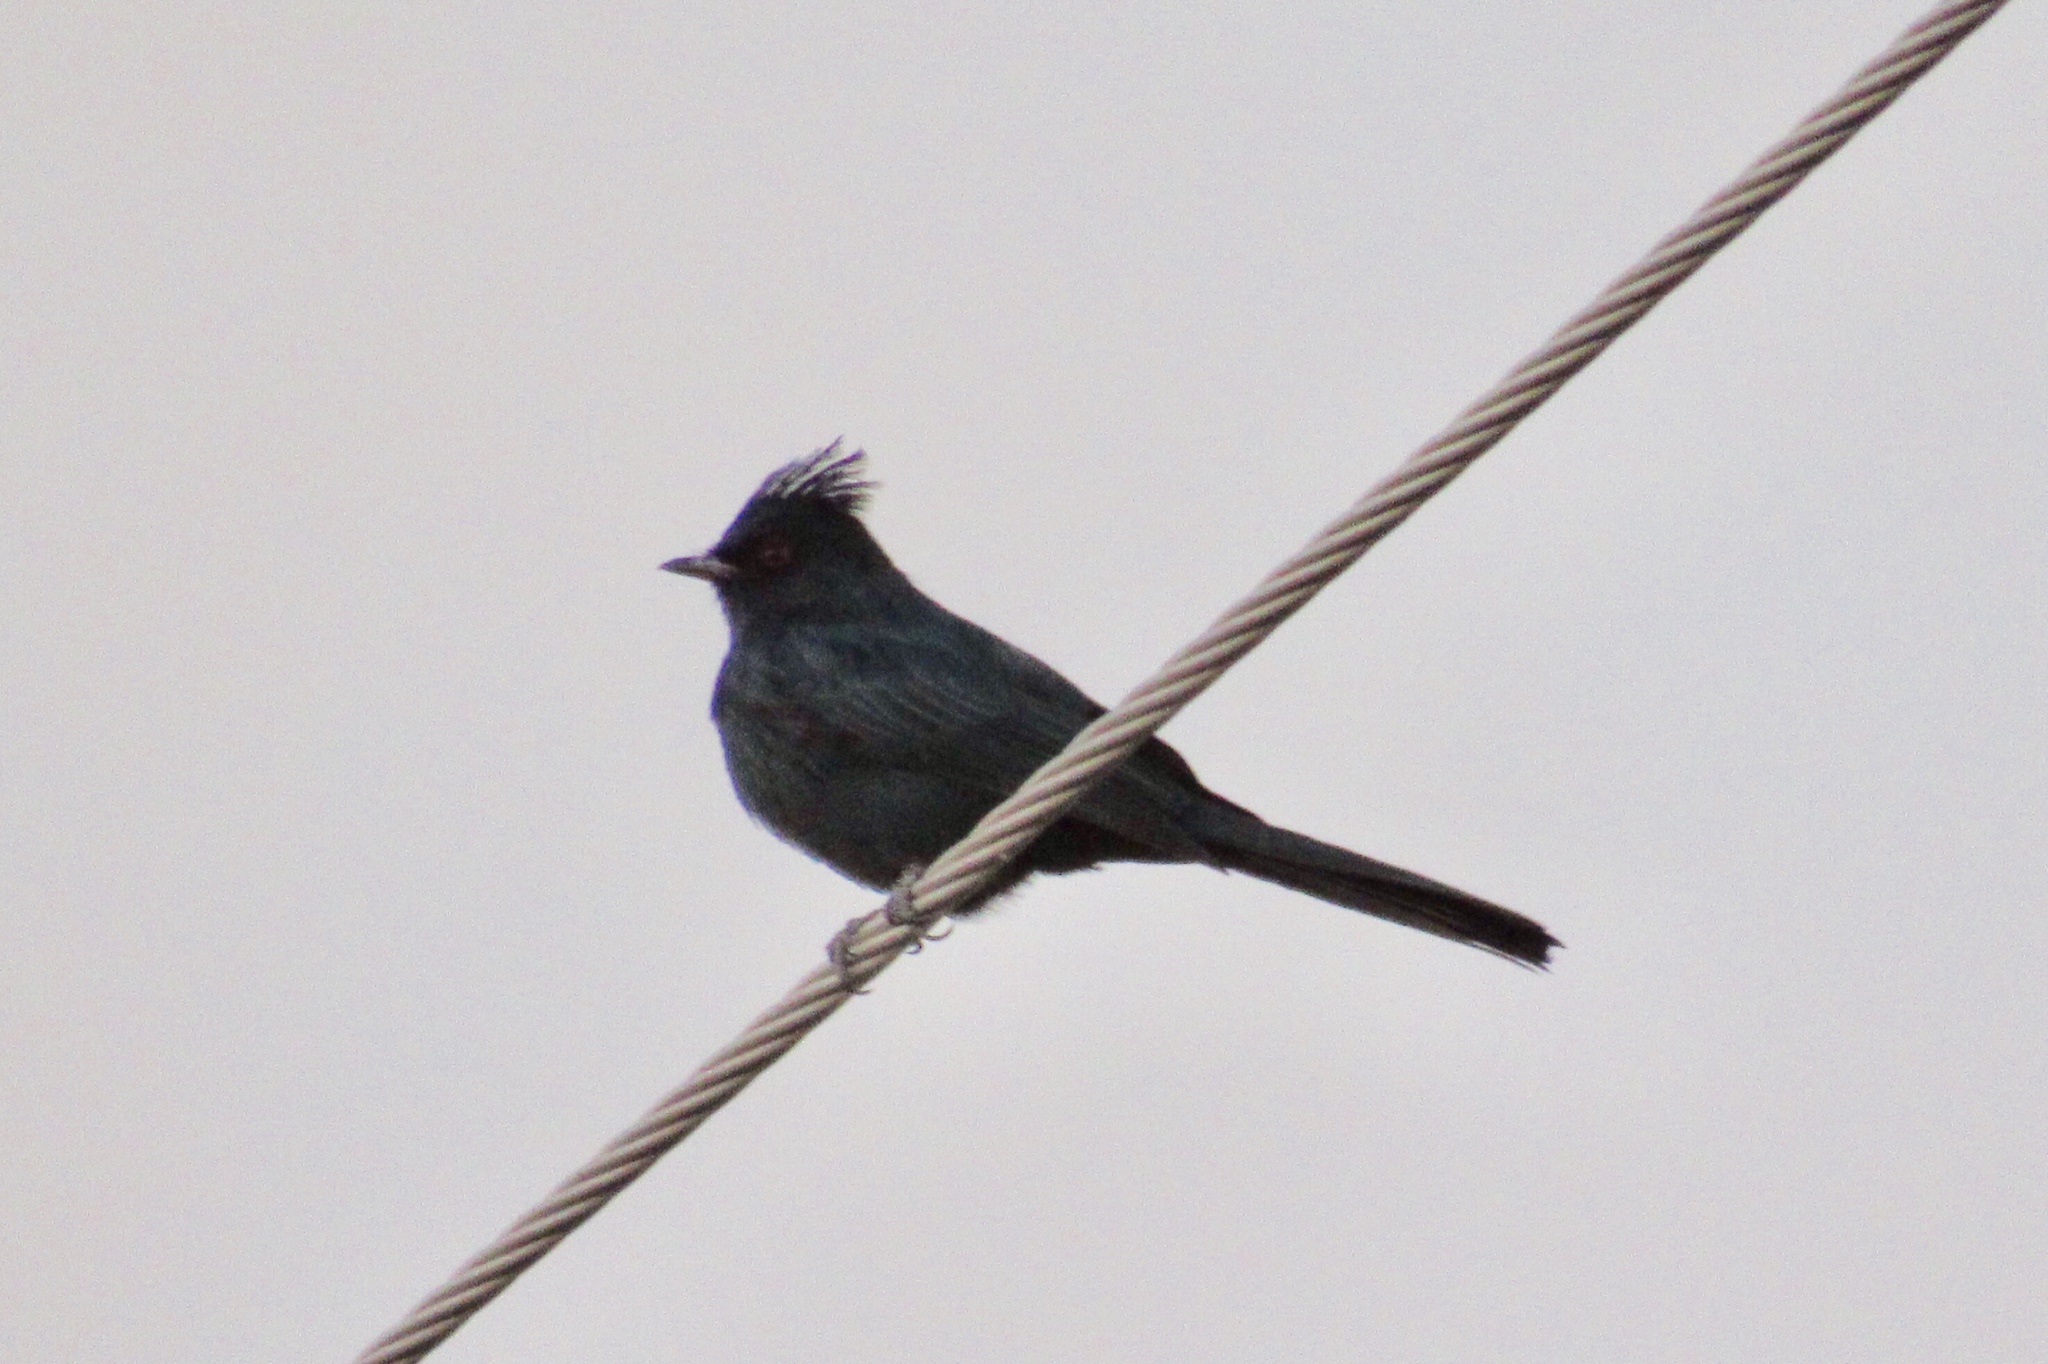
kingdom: Animalia
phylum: Chordata
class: Aves
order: Passeriformes
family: Ptilogonatidae
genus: Phainopepla
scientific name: Phainopepla nitens
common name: Phainopepla
